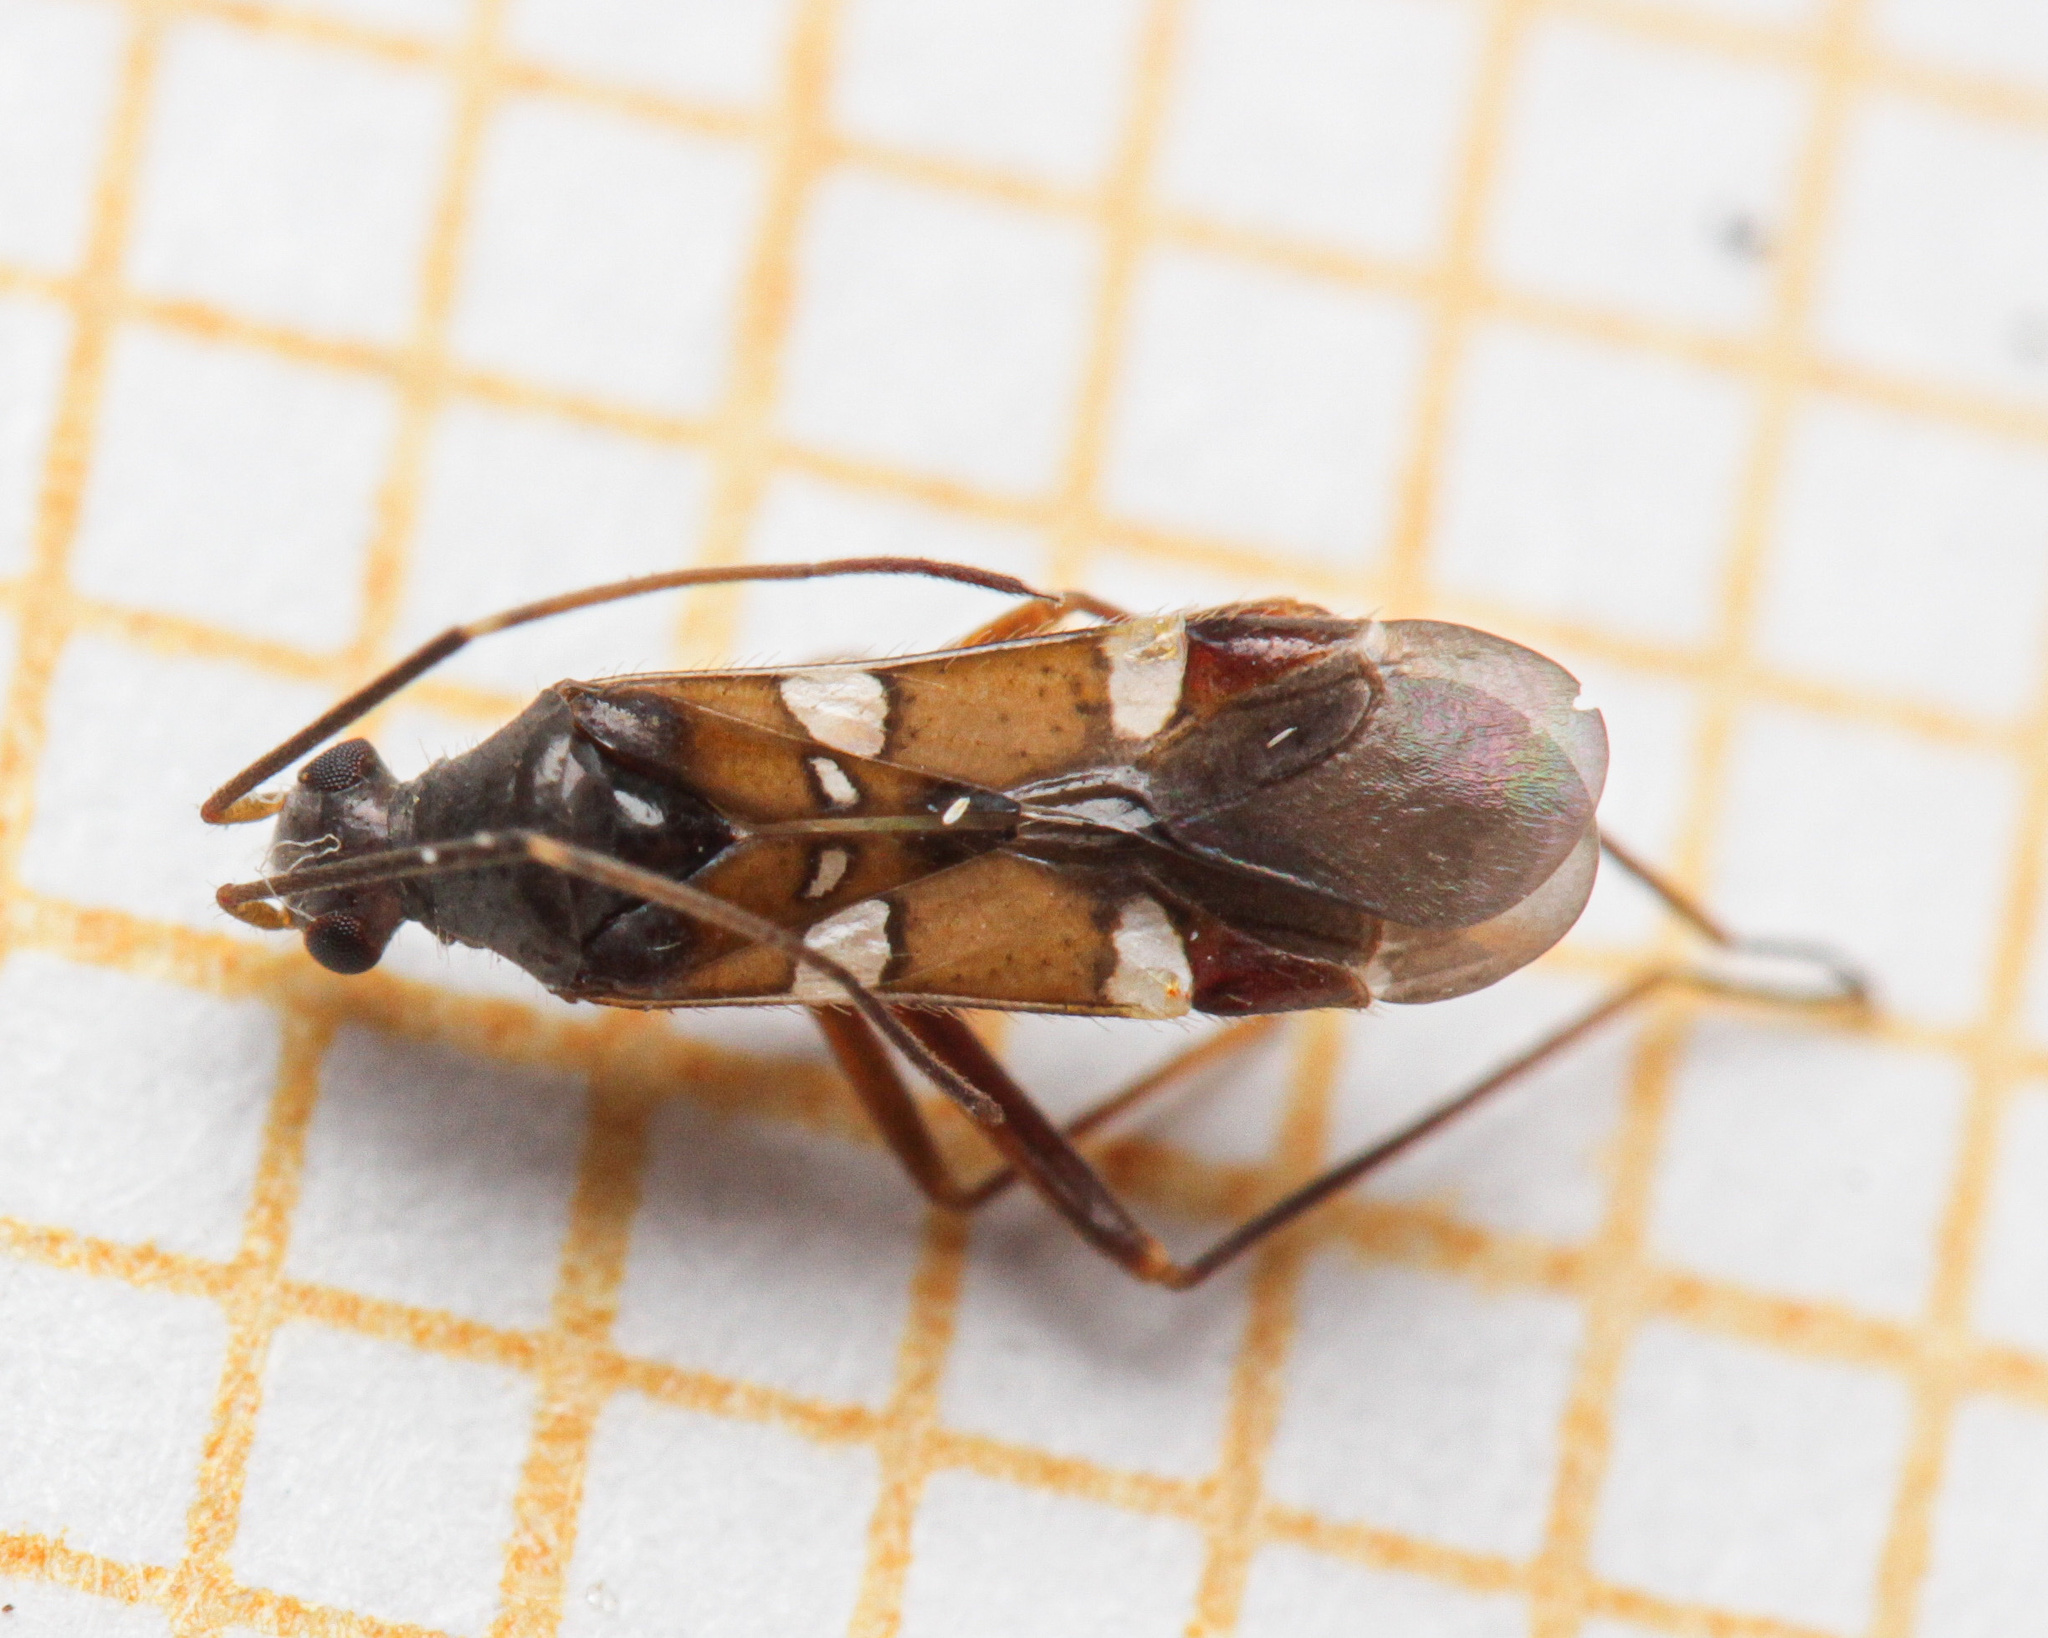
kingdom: Animalia
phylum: Arthropoda
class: Insecta
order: Hemiptera
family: Miridae
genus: Systellonotus
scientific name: Systellonotus triguttatus
